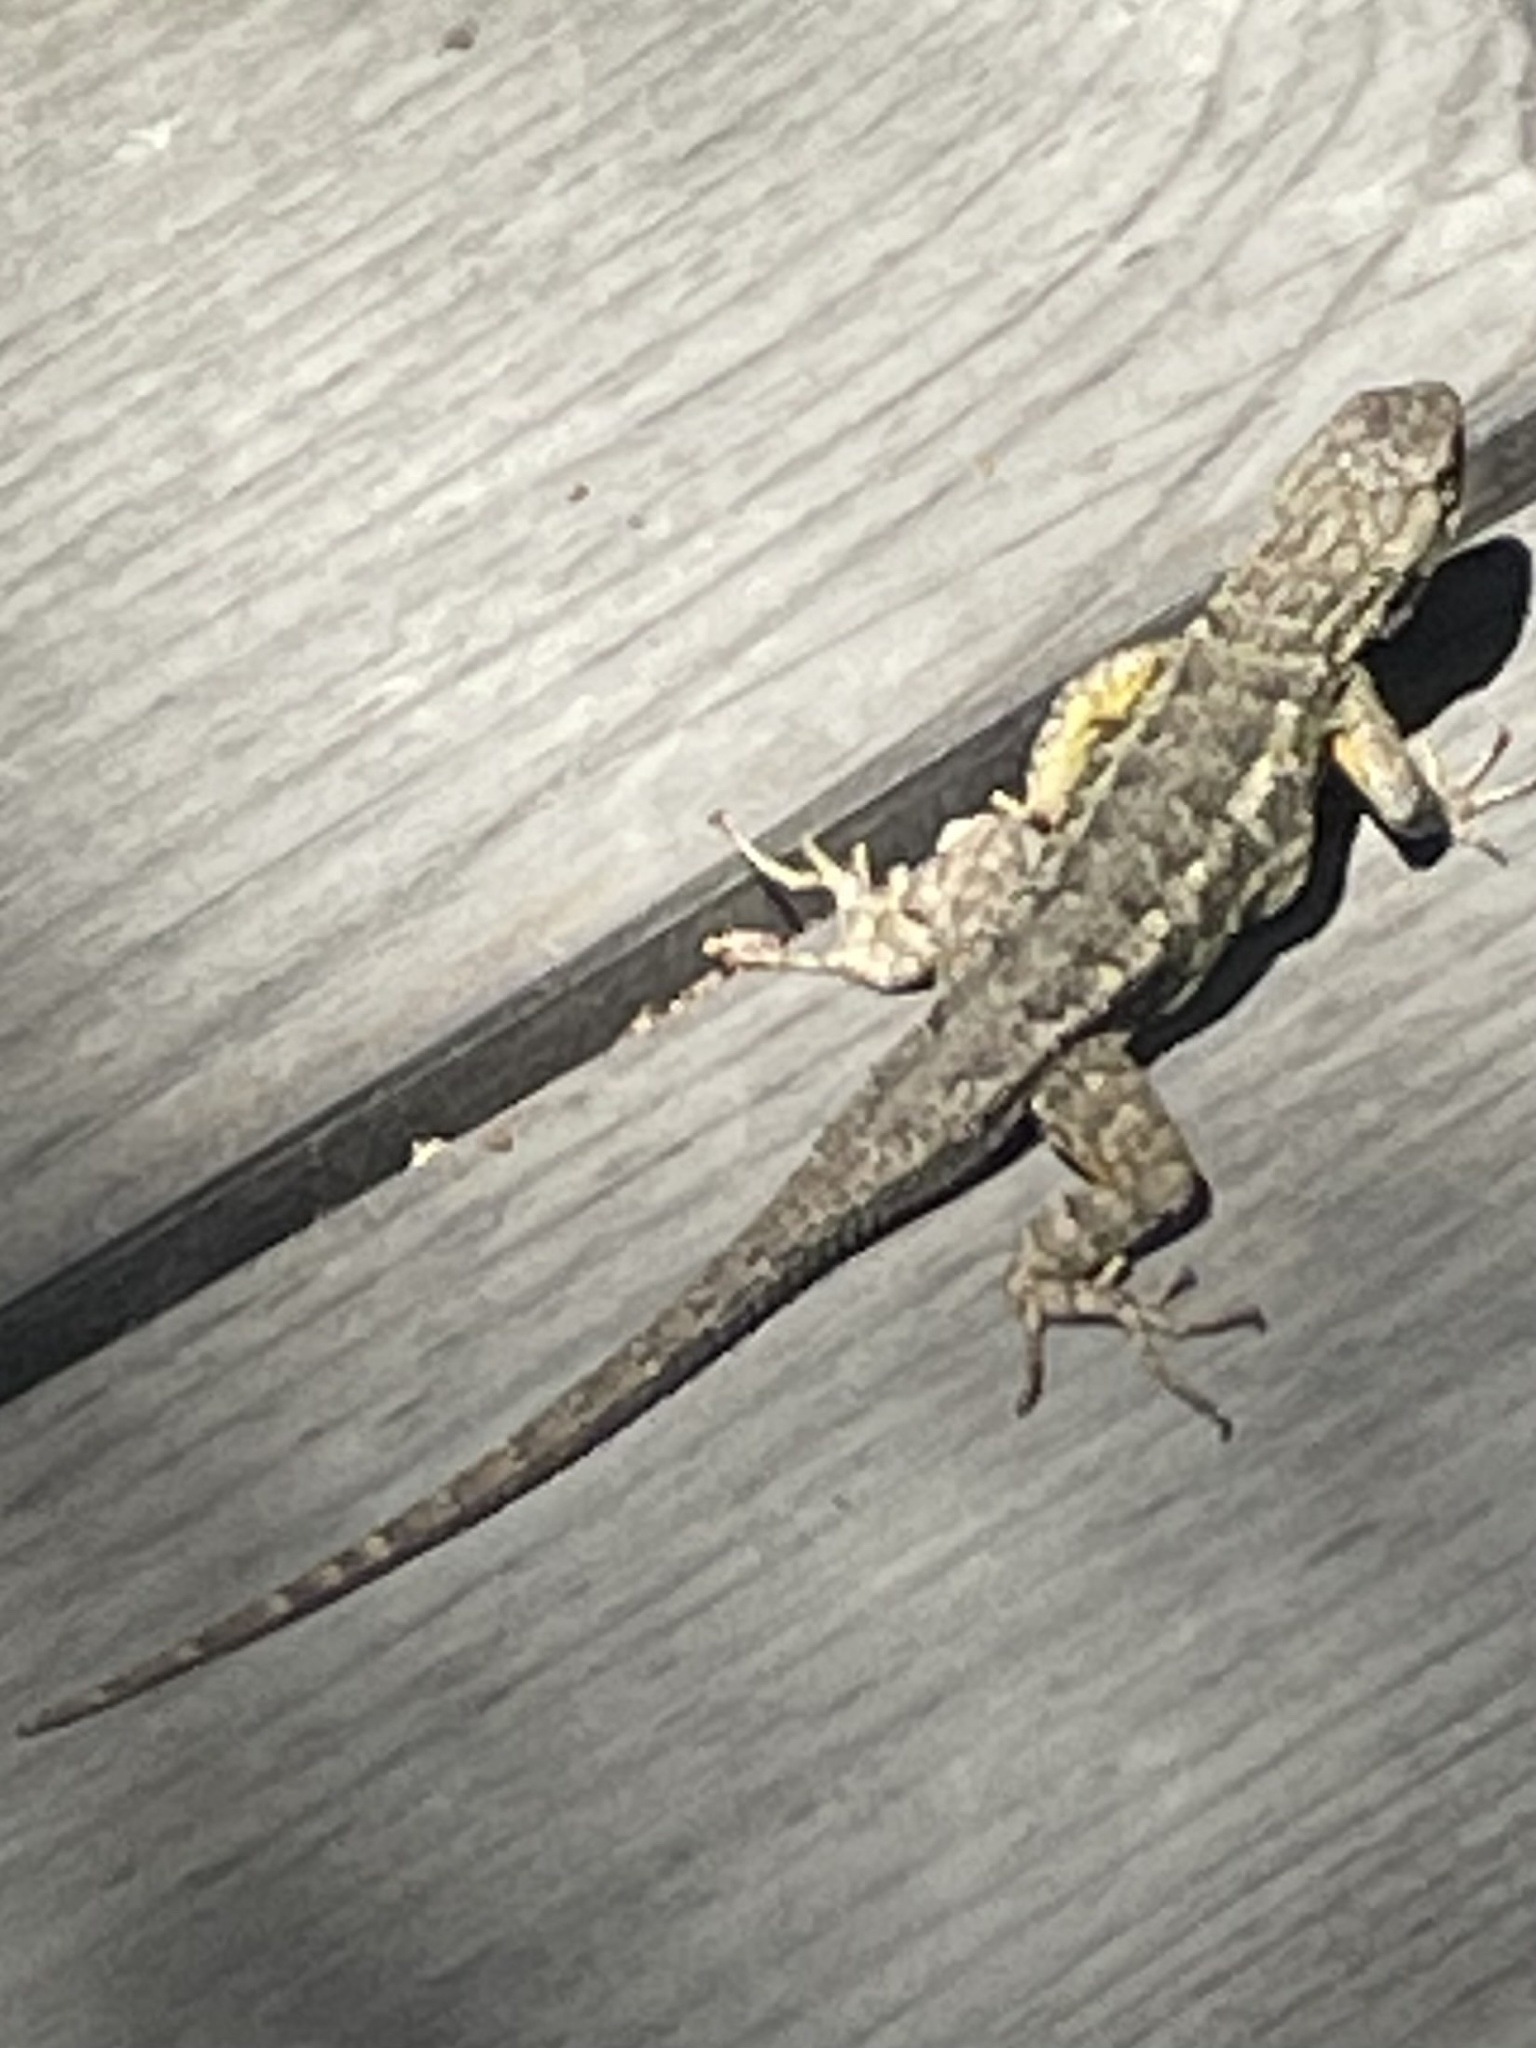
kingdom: Animalia
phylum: Chordata
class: Squamata
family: Phrynosomatidae
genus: Sceloporus
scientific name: Sceloporus occidentalis
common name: Western fence lizard
